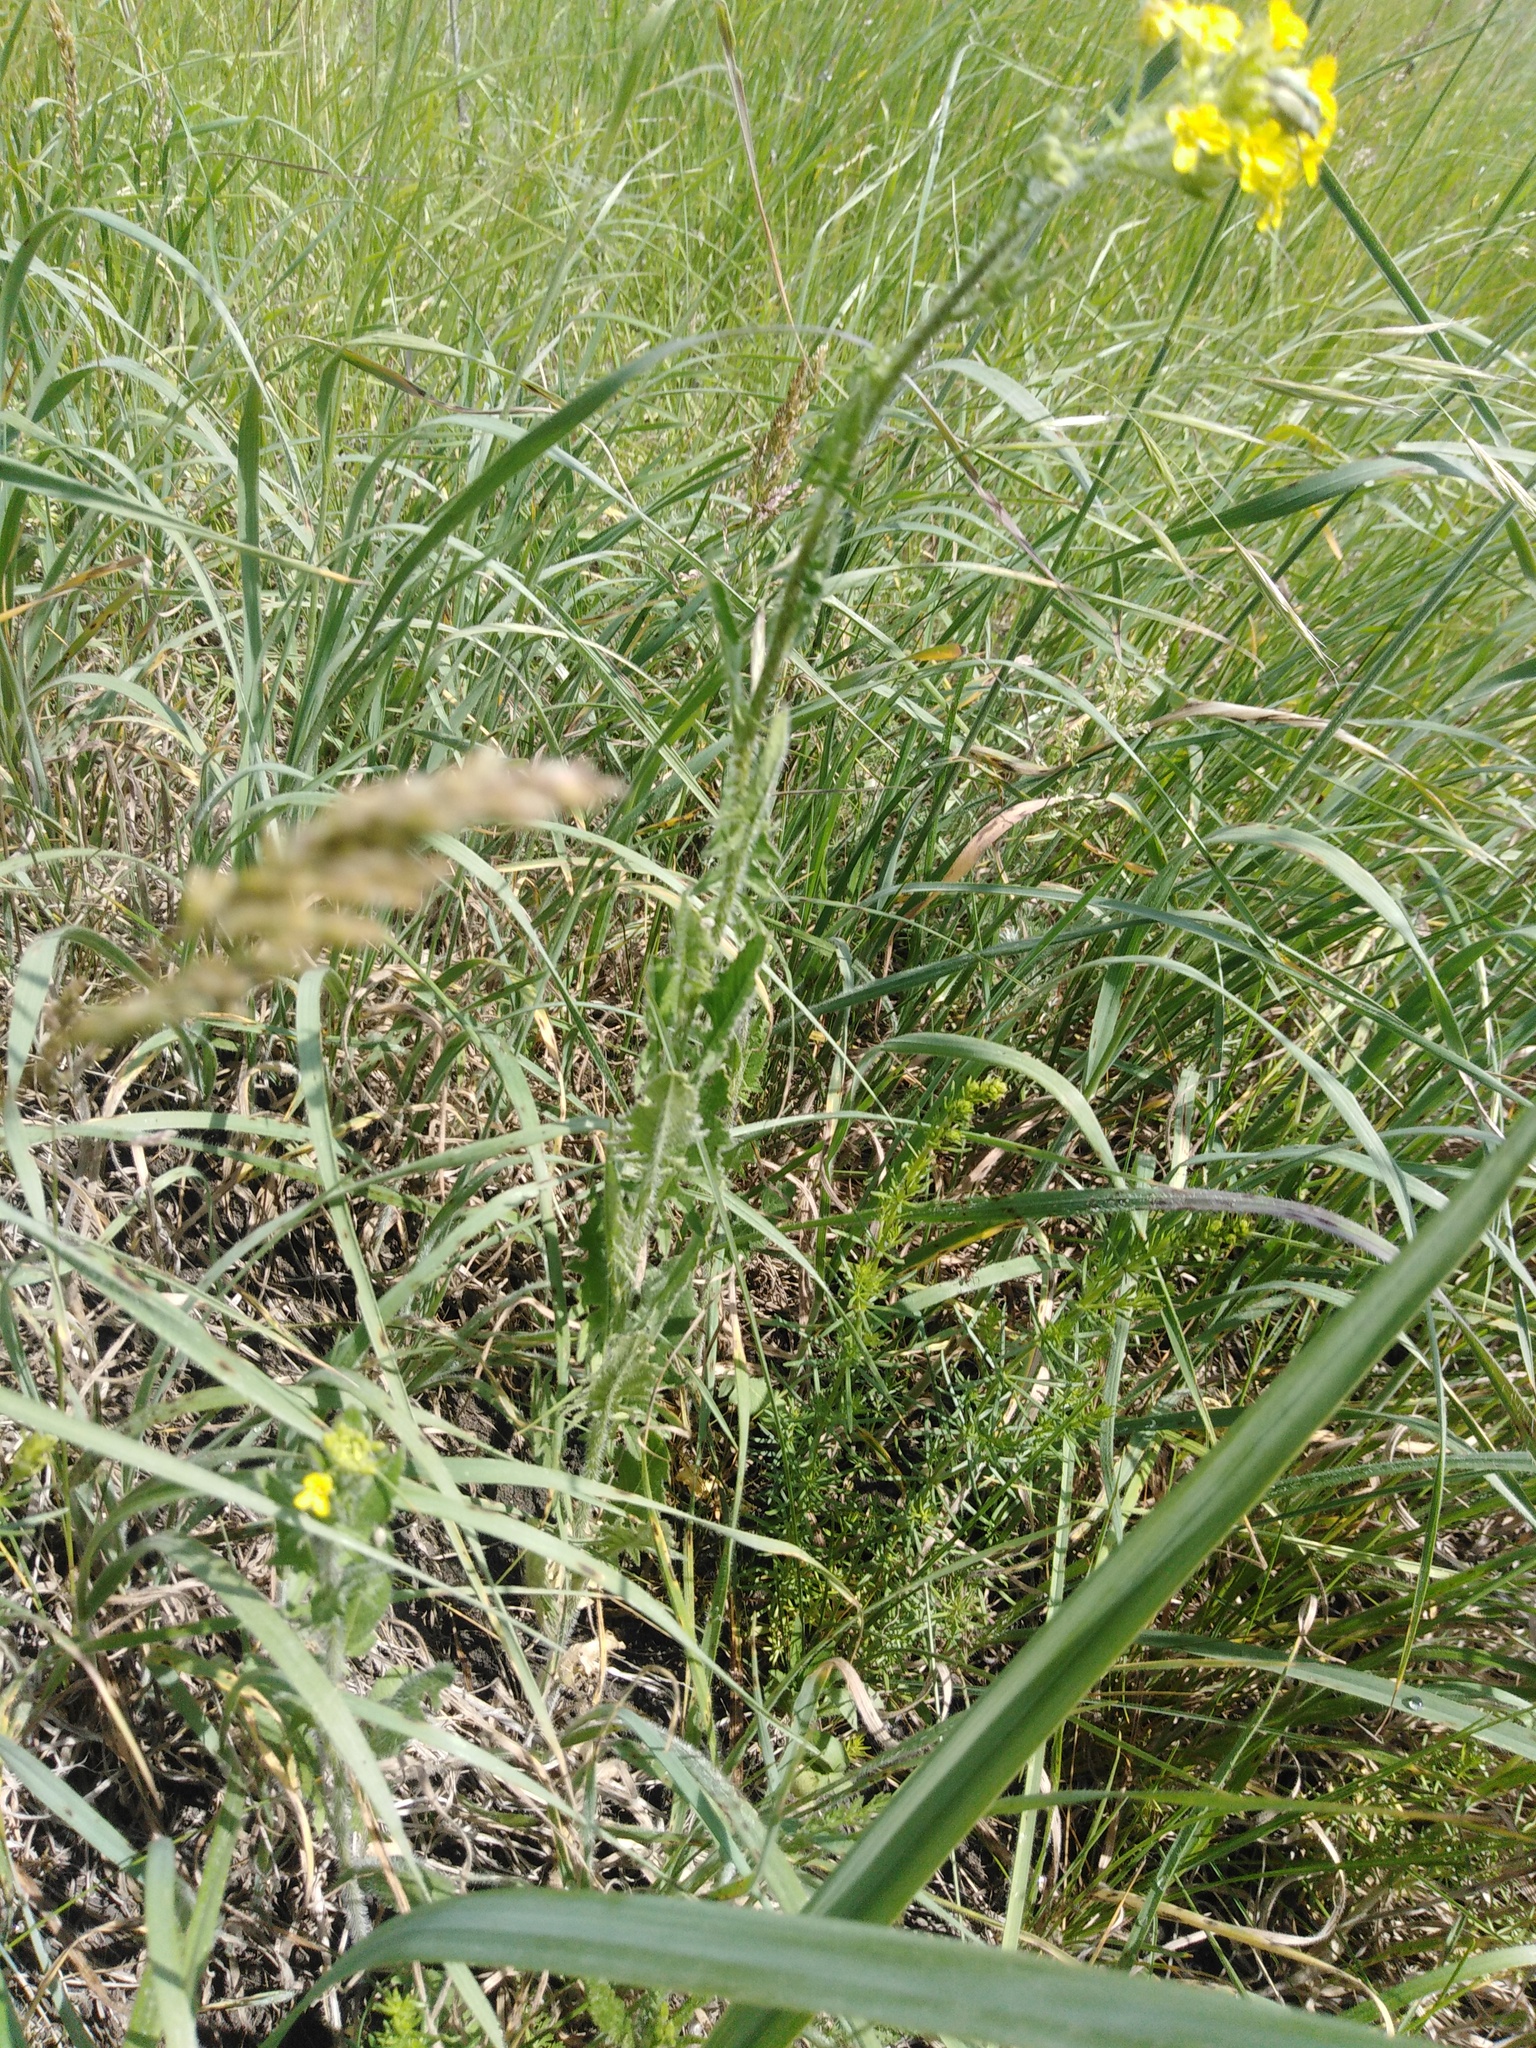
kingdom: Plantae
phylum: Tracheophyta
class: Magnoliopsida
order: Brassicales
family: Brassicaceae
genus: Sisymbrium
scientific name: Sisymbrium loeselii
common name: False london-rocket
